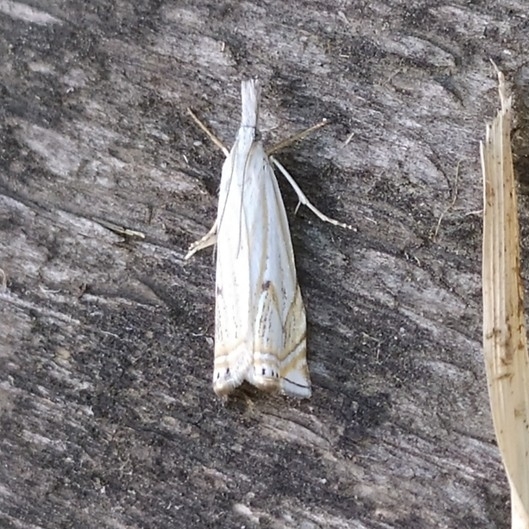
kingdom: Animalia
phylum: Arthropoda
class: Insecta
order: Lepidoptera
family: Crambidae
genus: Crambus
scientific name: Crambus nemorella
